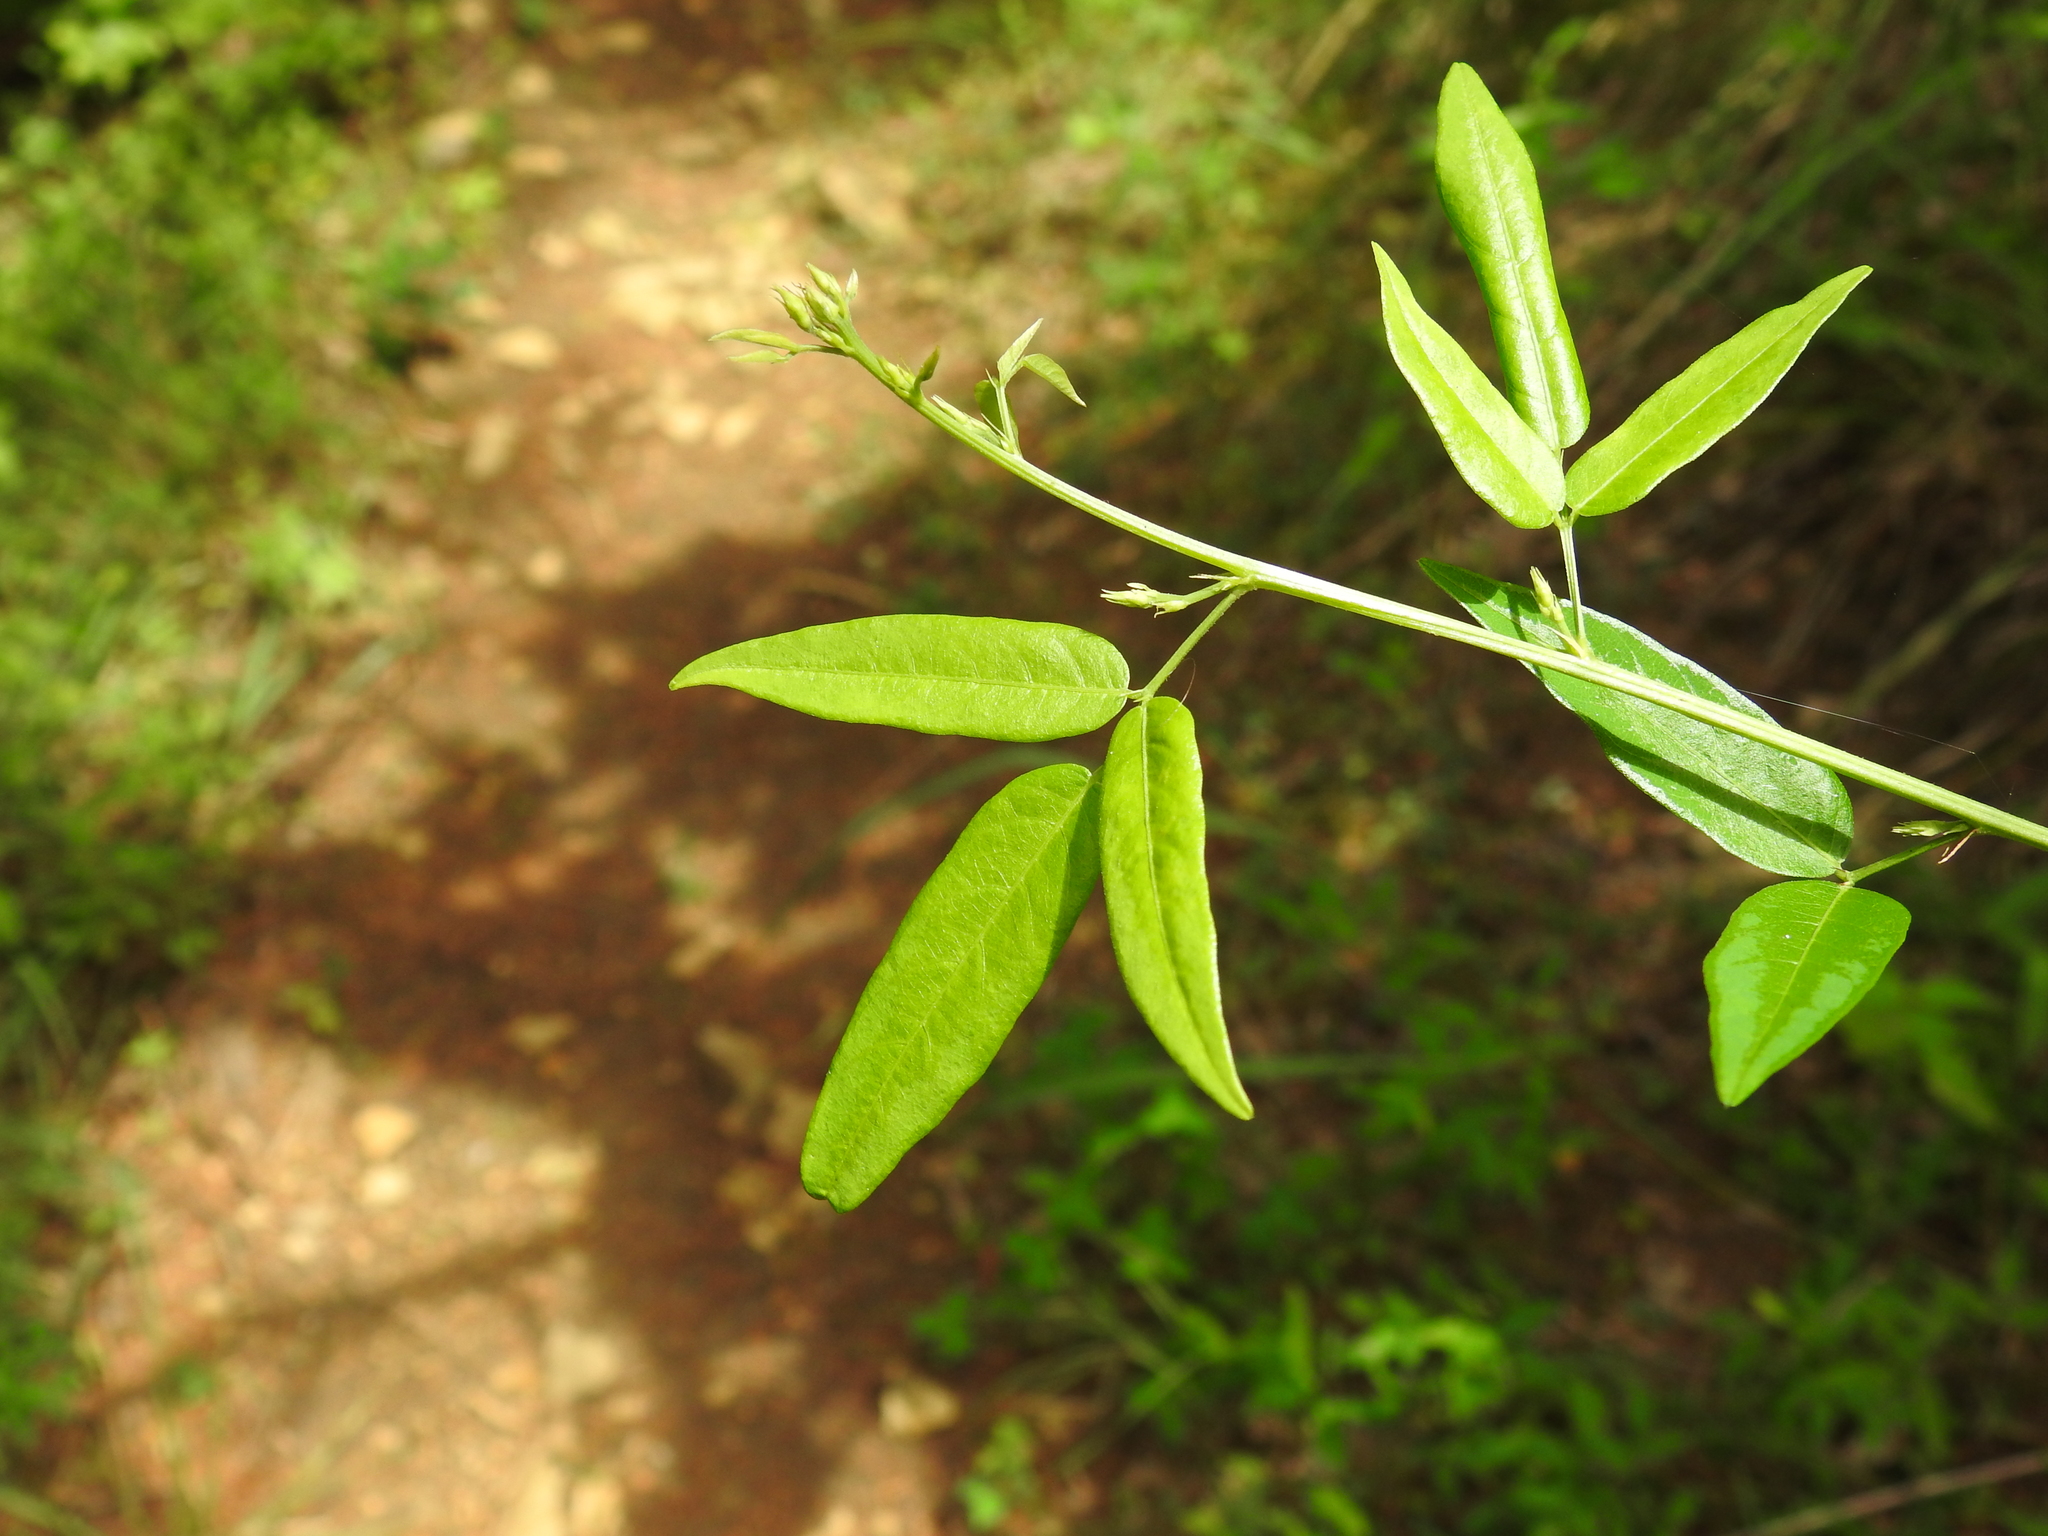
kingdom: Plantae
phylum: Tracheophyta
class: Magnoliopsida
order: Fabales
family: Fabaceae
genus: Desmodium
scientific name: Desmodium paniculatum
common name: Panicled tick-clover
